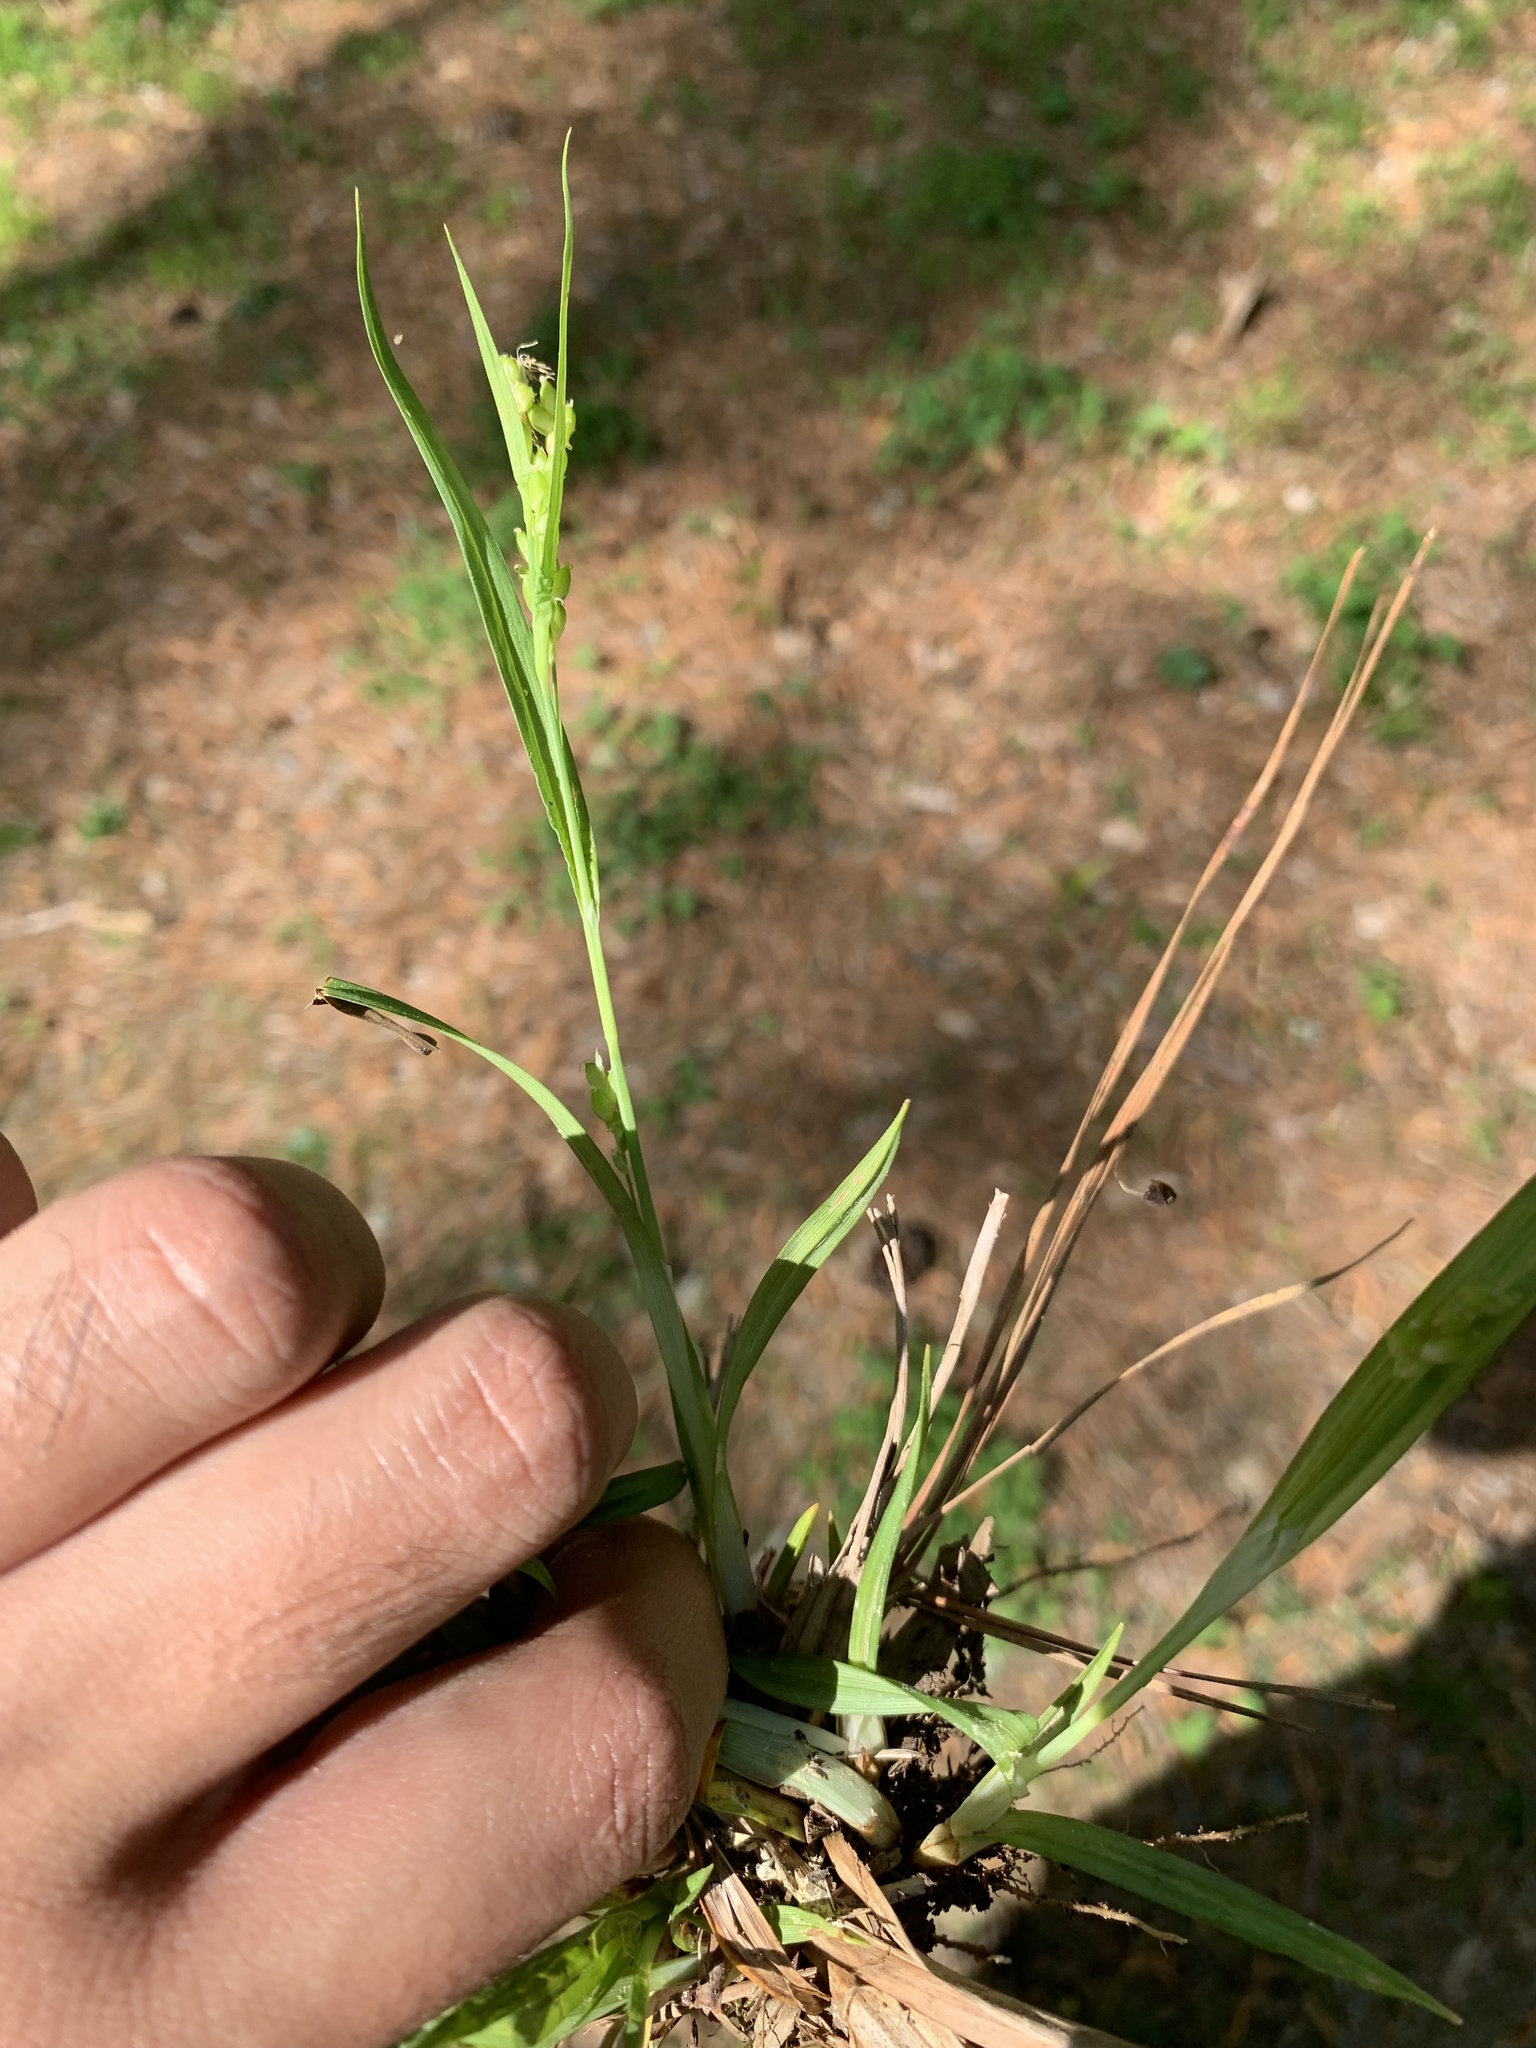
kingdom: Plantae
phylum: Tracheophyta
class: Liliopsida
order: Poales
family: Cyperaceae
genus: Carex
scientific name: Carex flaccosperma
